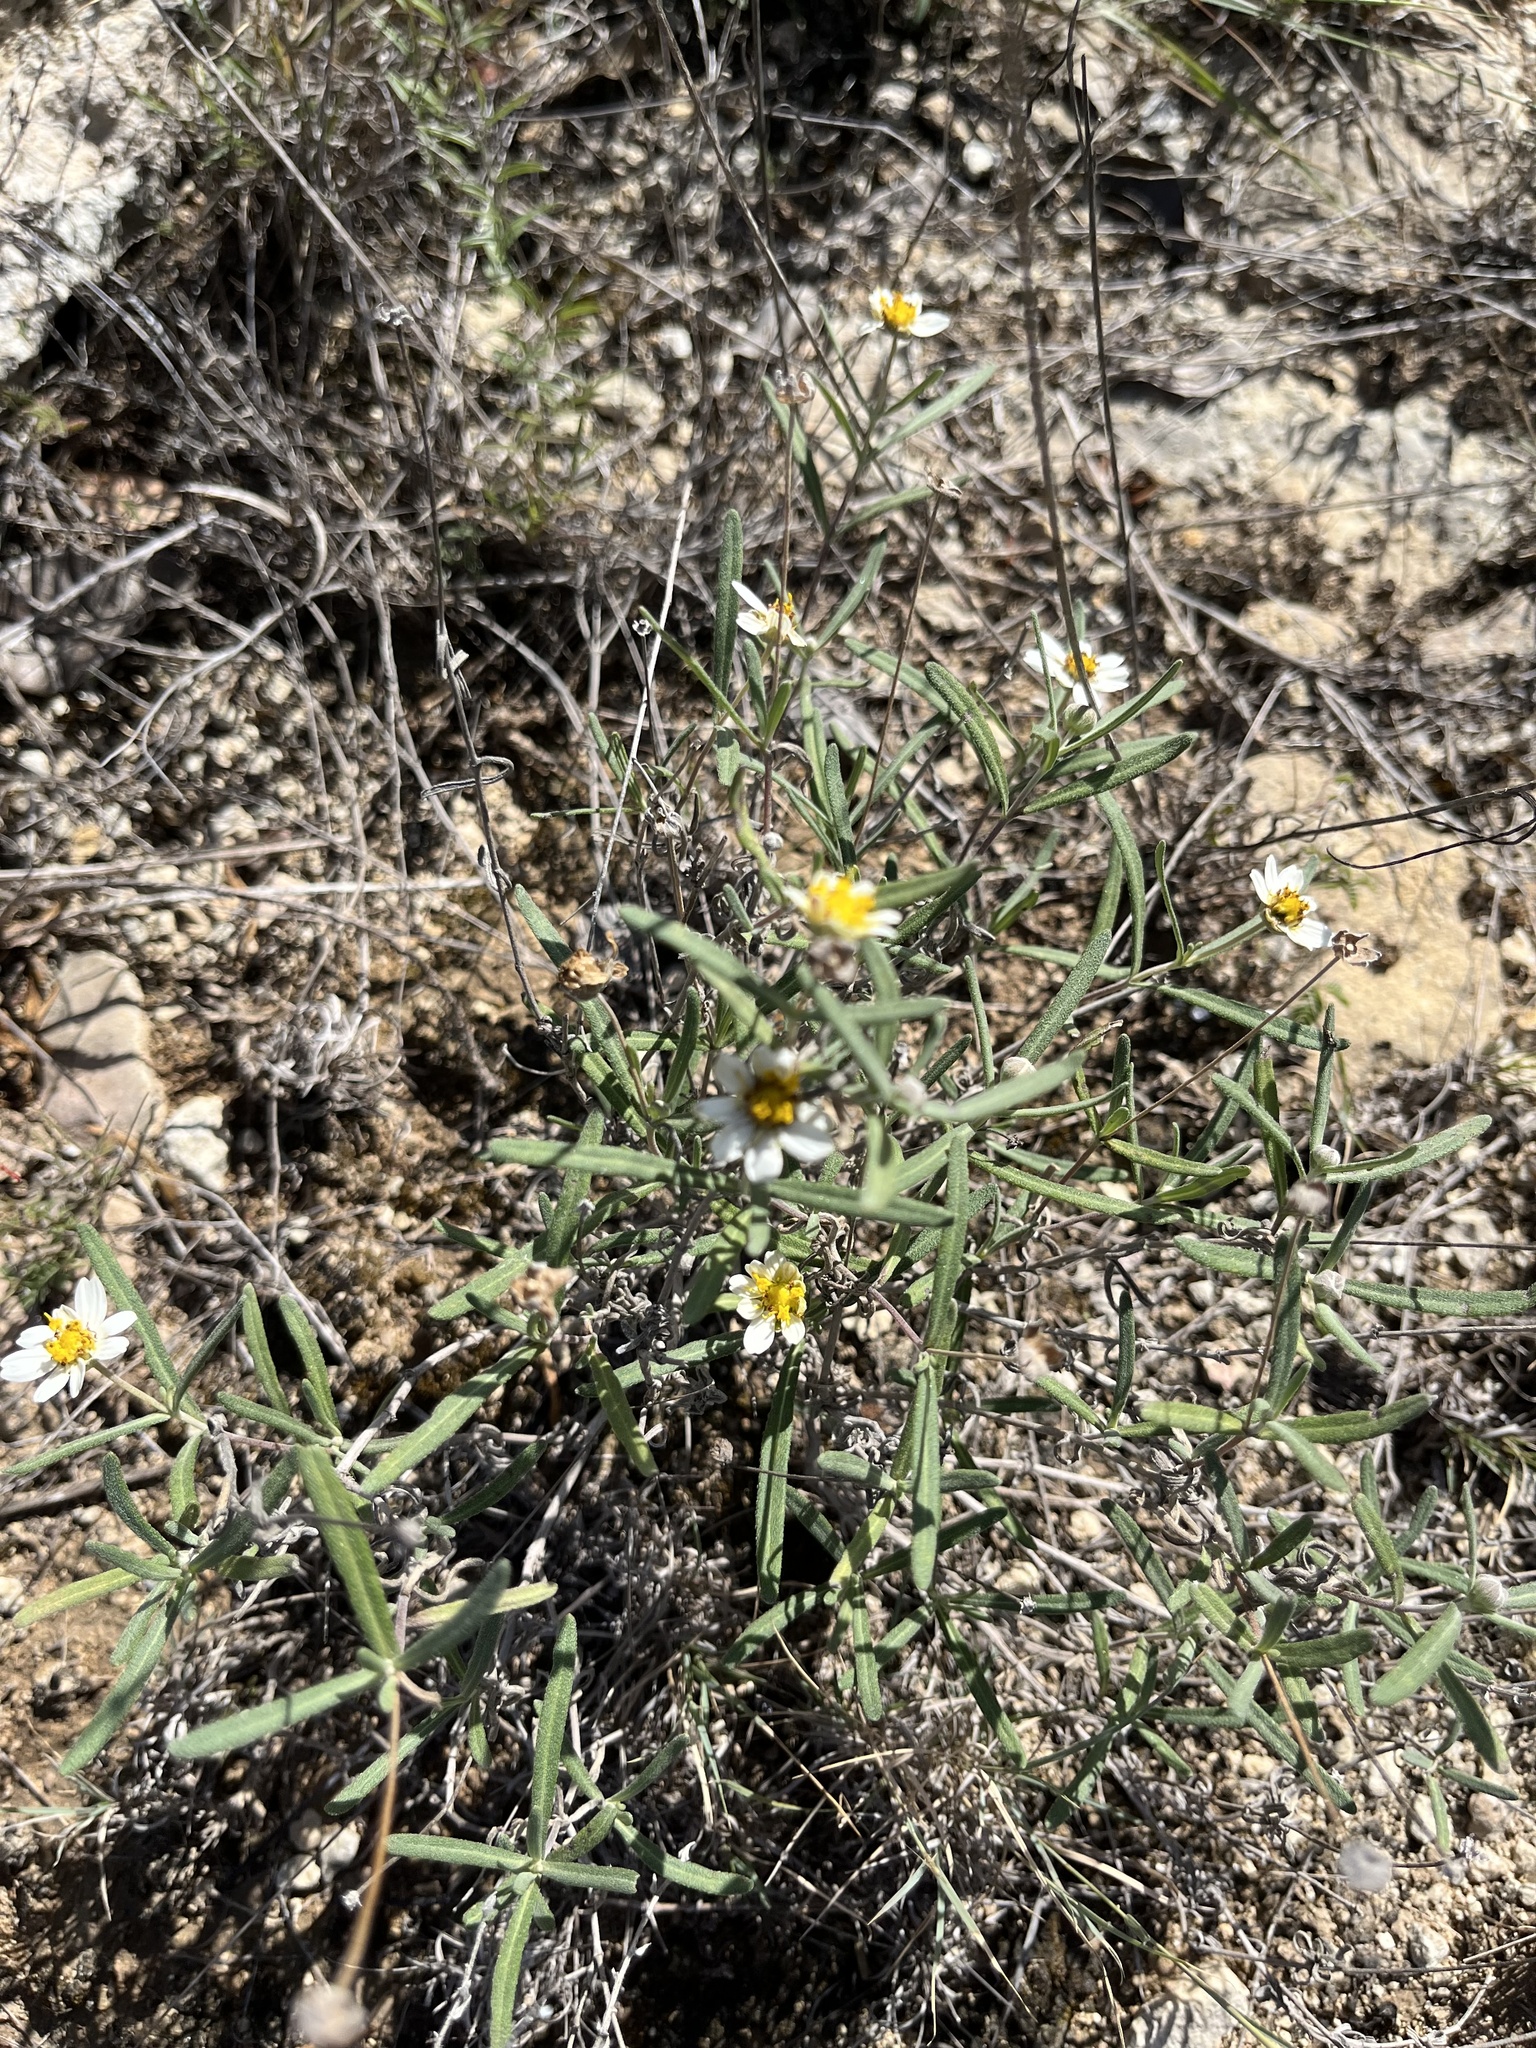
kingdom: Plantae
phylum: Tracheophyta
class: Magnoliopsida
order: Asterales
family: Asteraceae
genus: Melampodium
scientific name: Melampodium leucanthum
